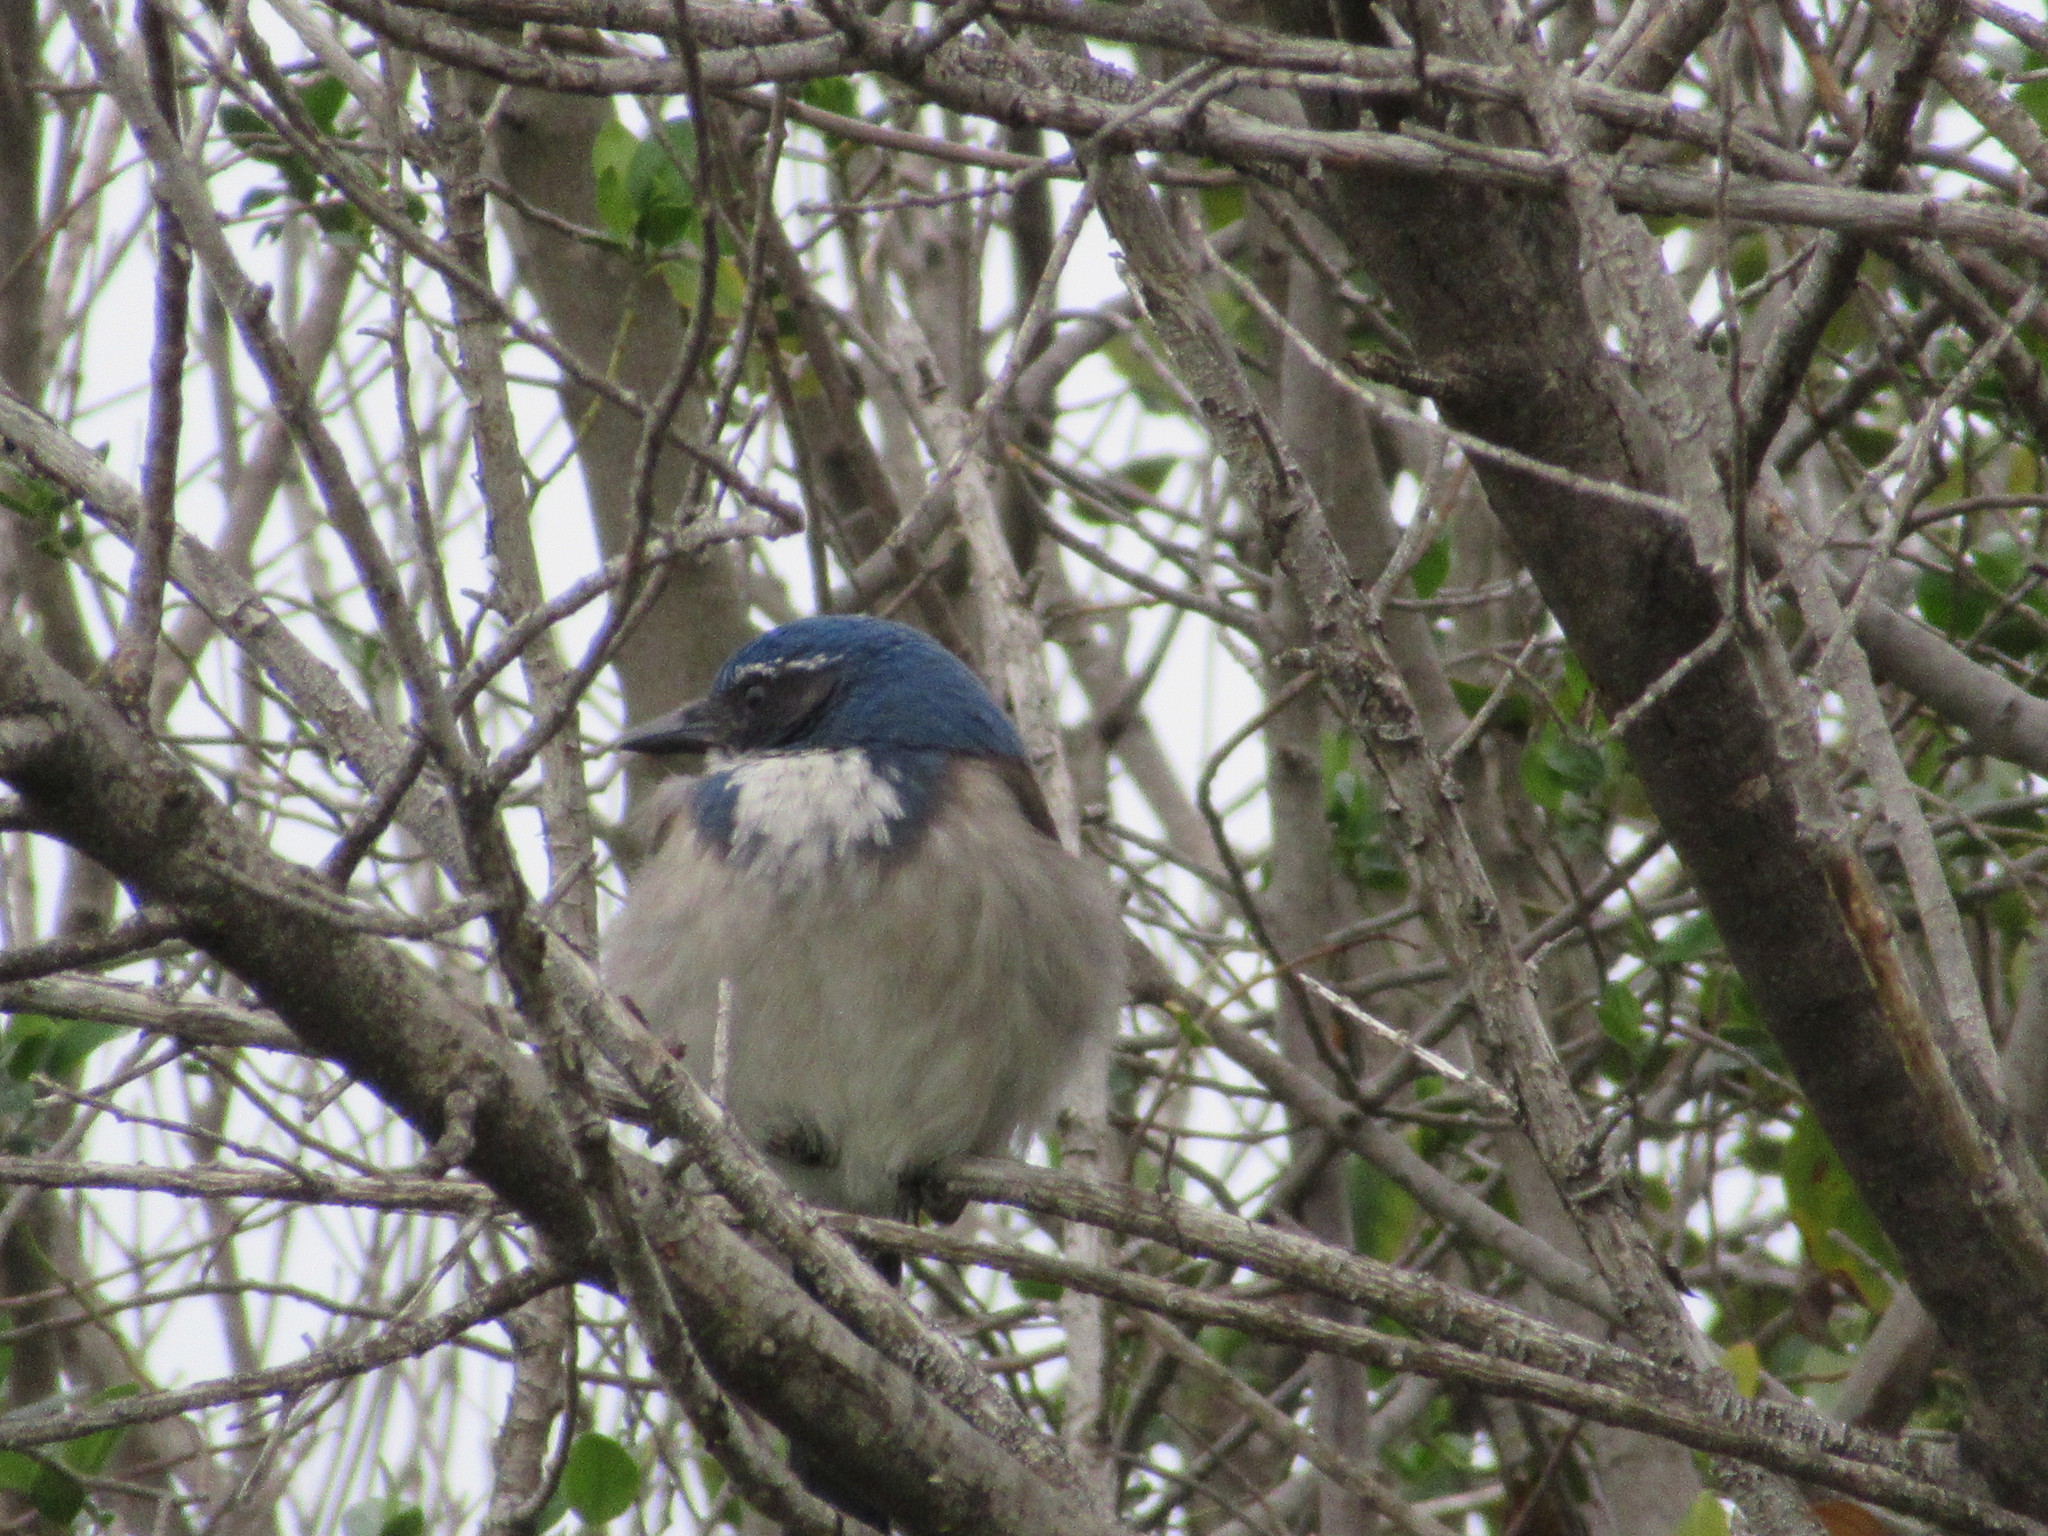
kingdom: Animalia
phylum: Chordata
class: Aves
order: Passeriformes
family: Corvidae
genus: Aphelocoma
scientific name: Aphelocoma californica
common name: California scrub-jay
